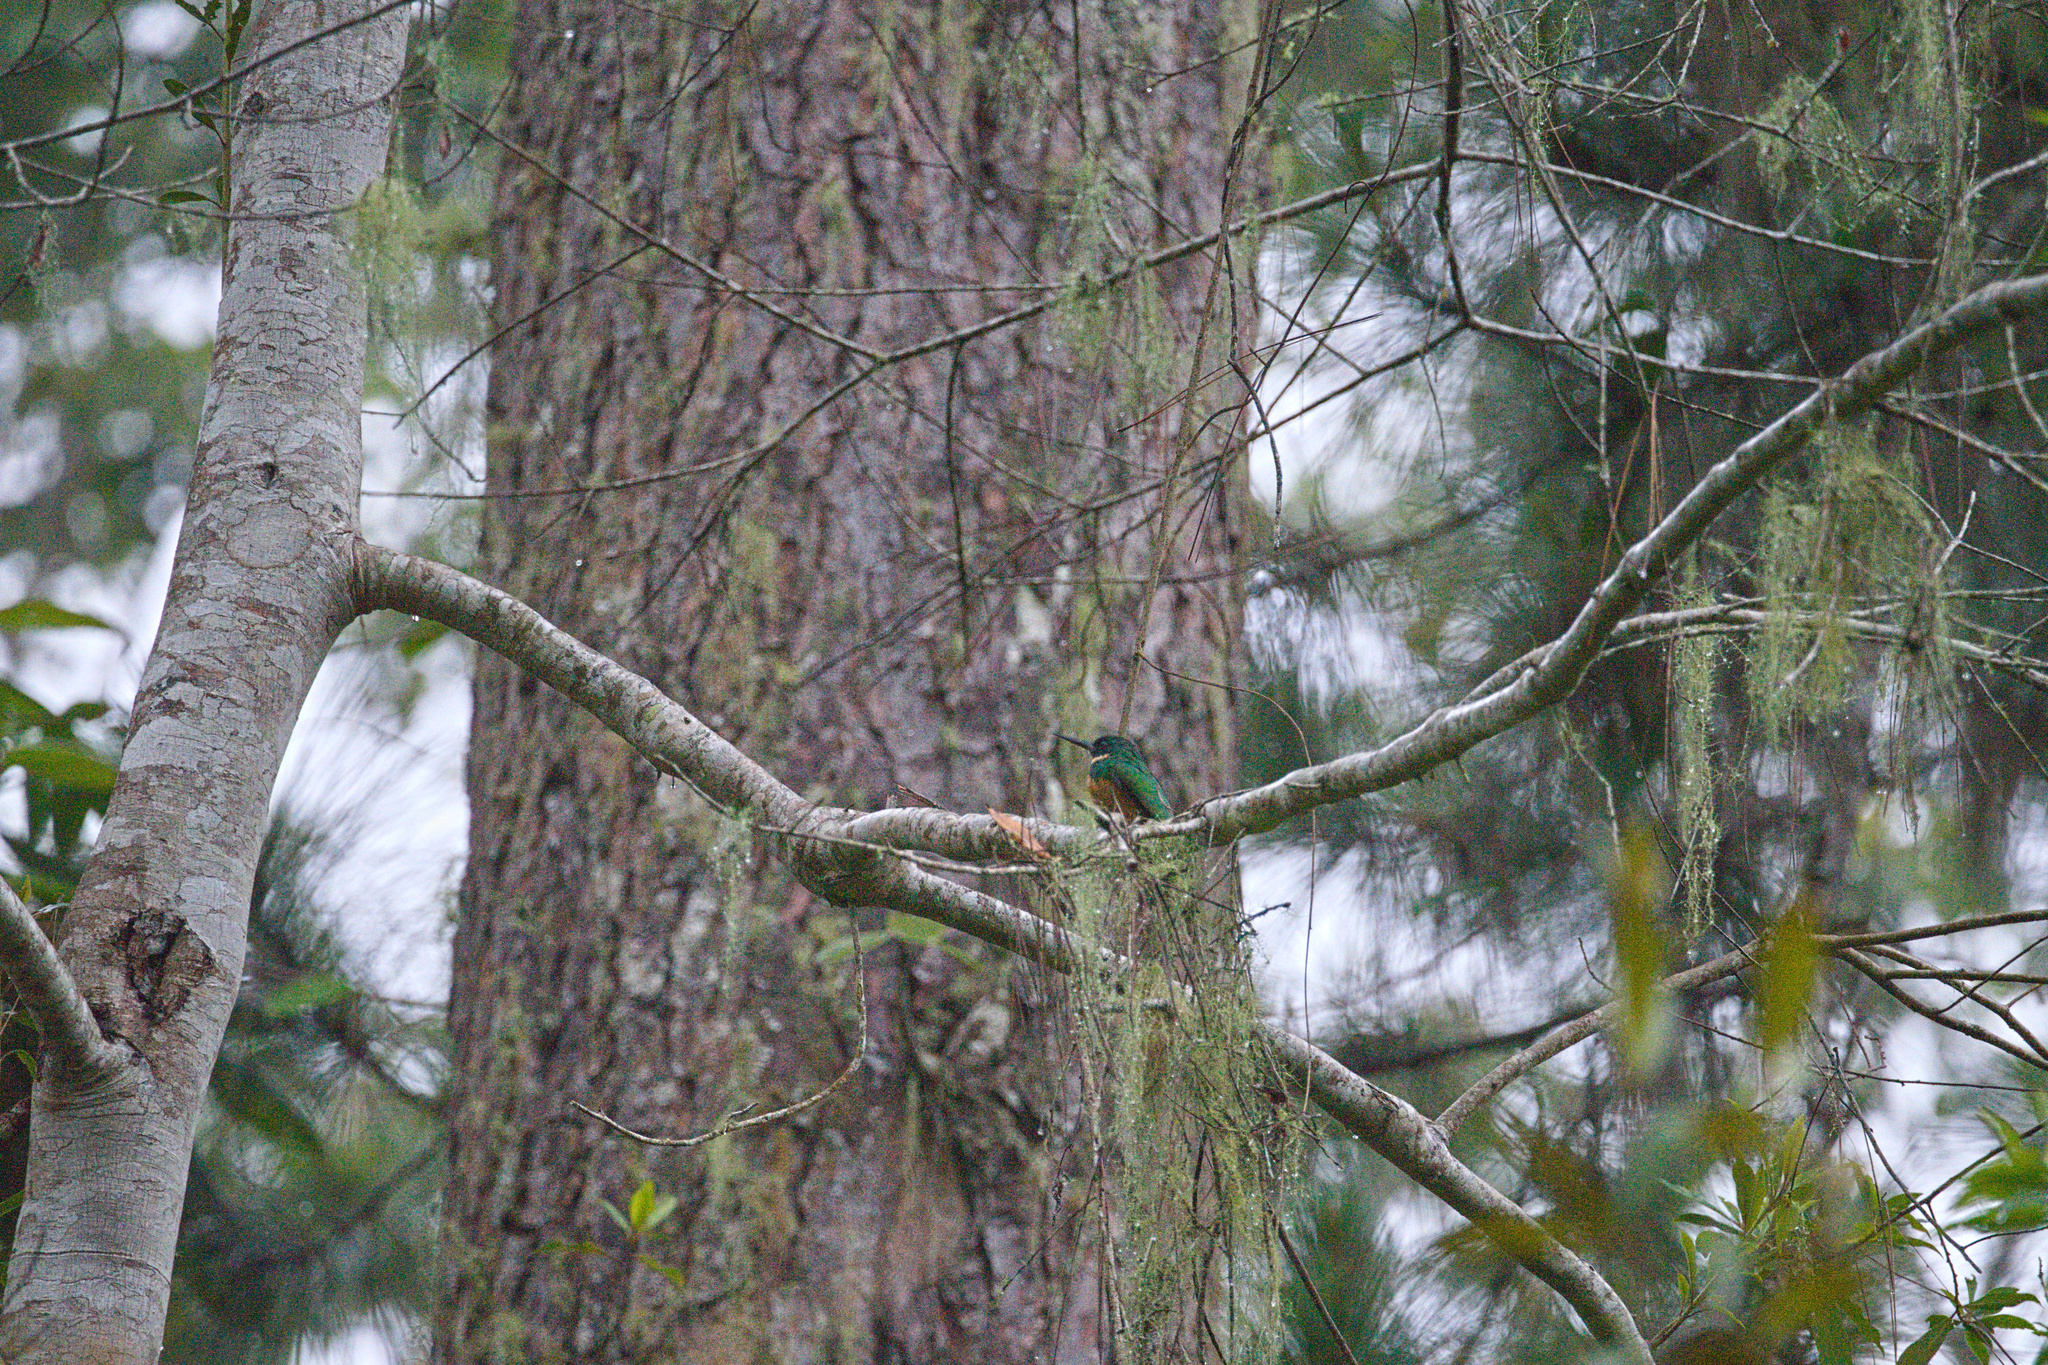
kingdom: Animalia
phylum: Chordata
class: Aves
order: Piciformes
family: Galbulidae
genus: Galbula
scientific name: Galbula ruficauda
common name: Rufous-tailed jacamar
